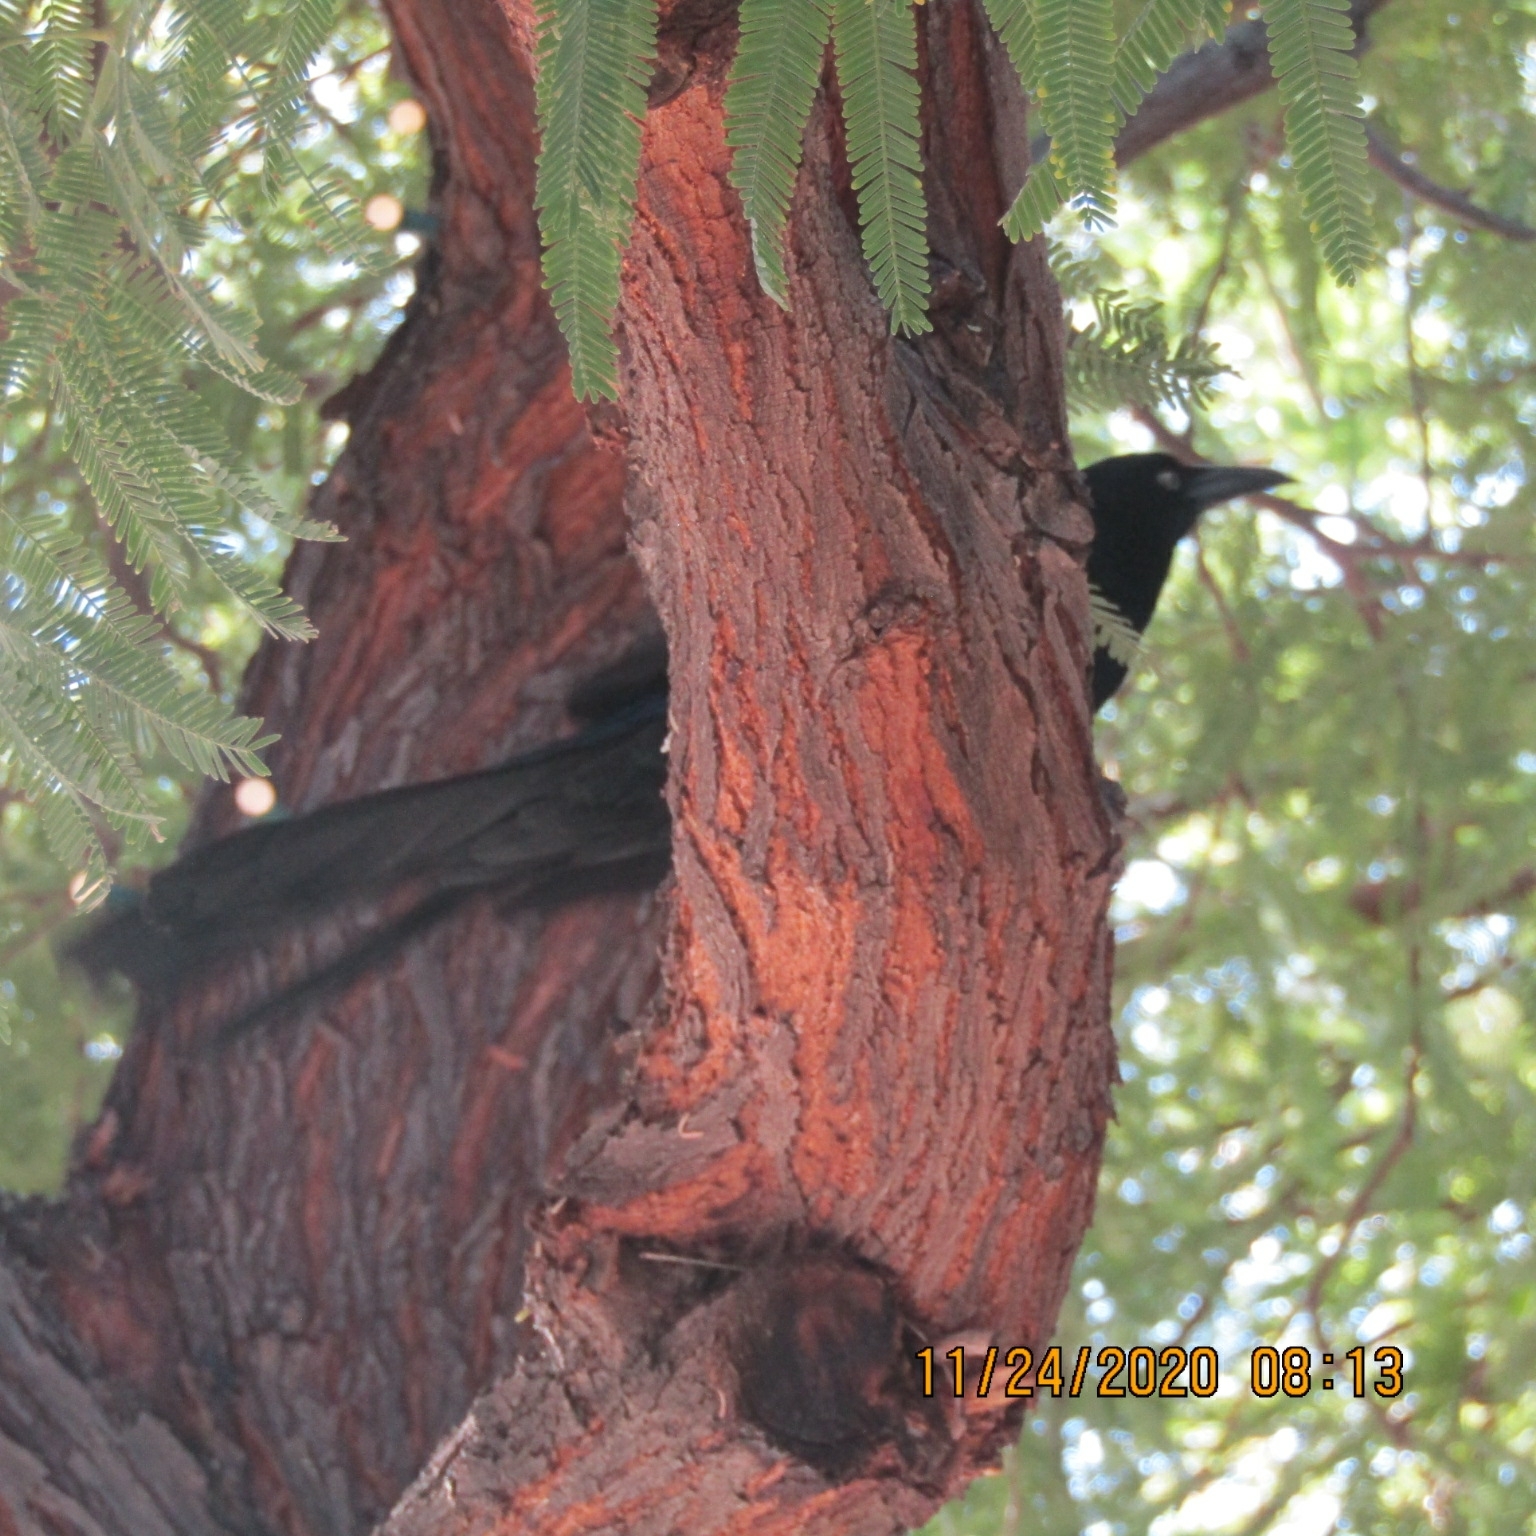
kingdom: Animalia
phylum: Chordata
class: Aves
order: Passeriformes
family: Icteridae
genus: Quiscalus
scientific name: Quiscalus mexicanus
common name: Great-tailed grackle
